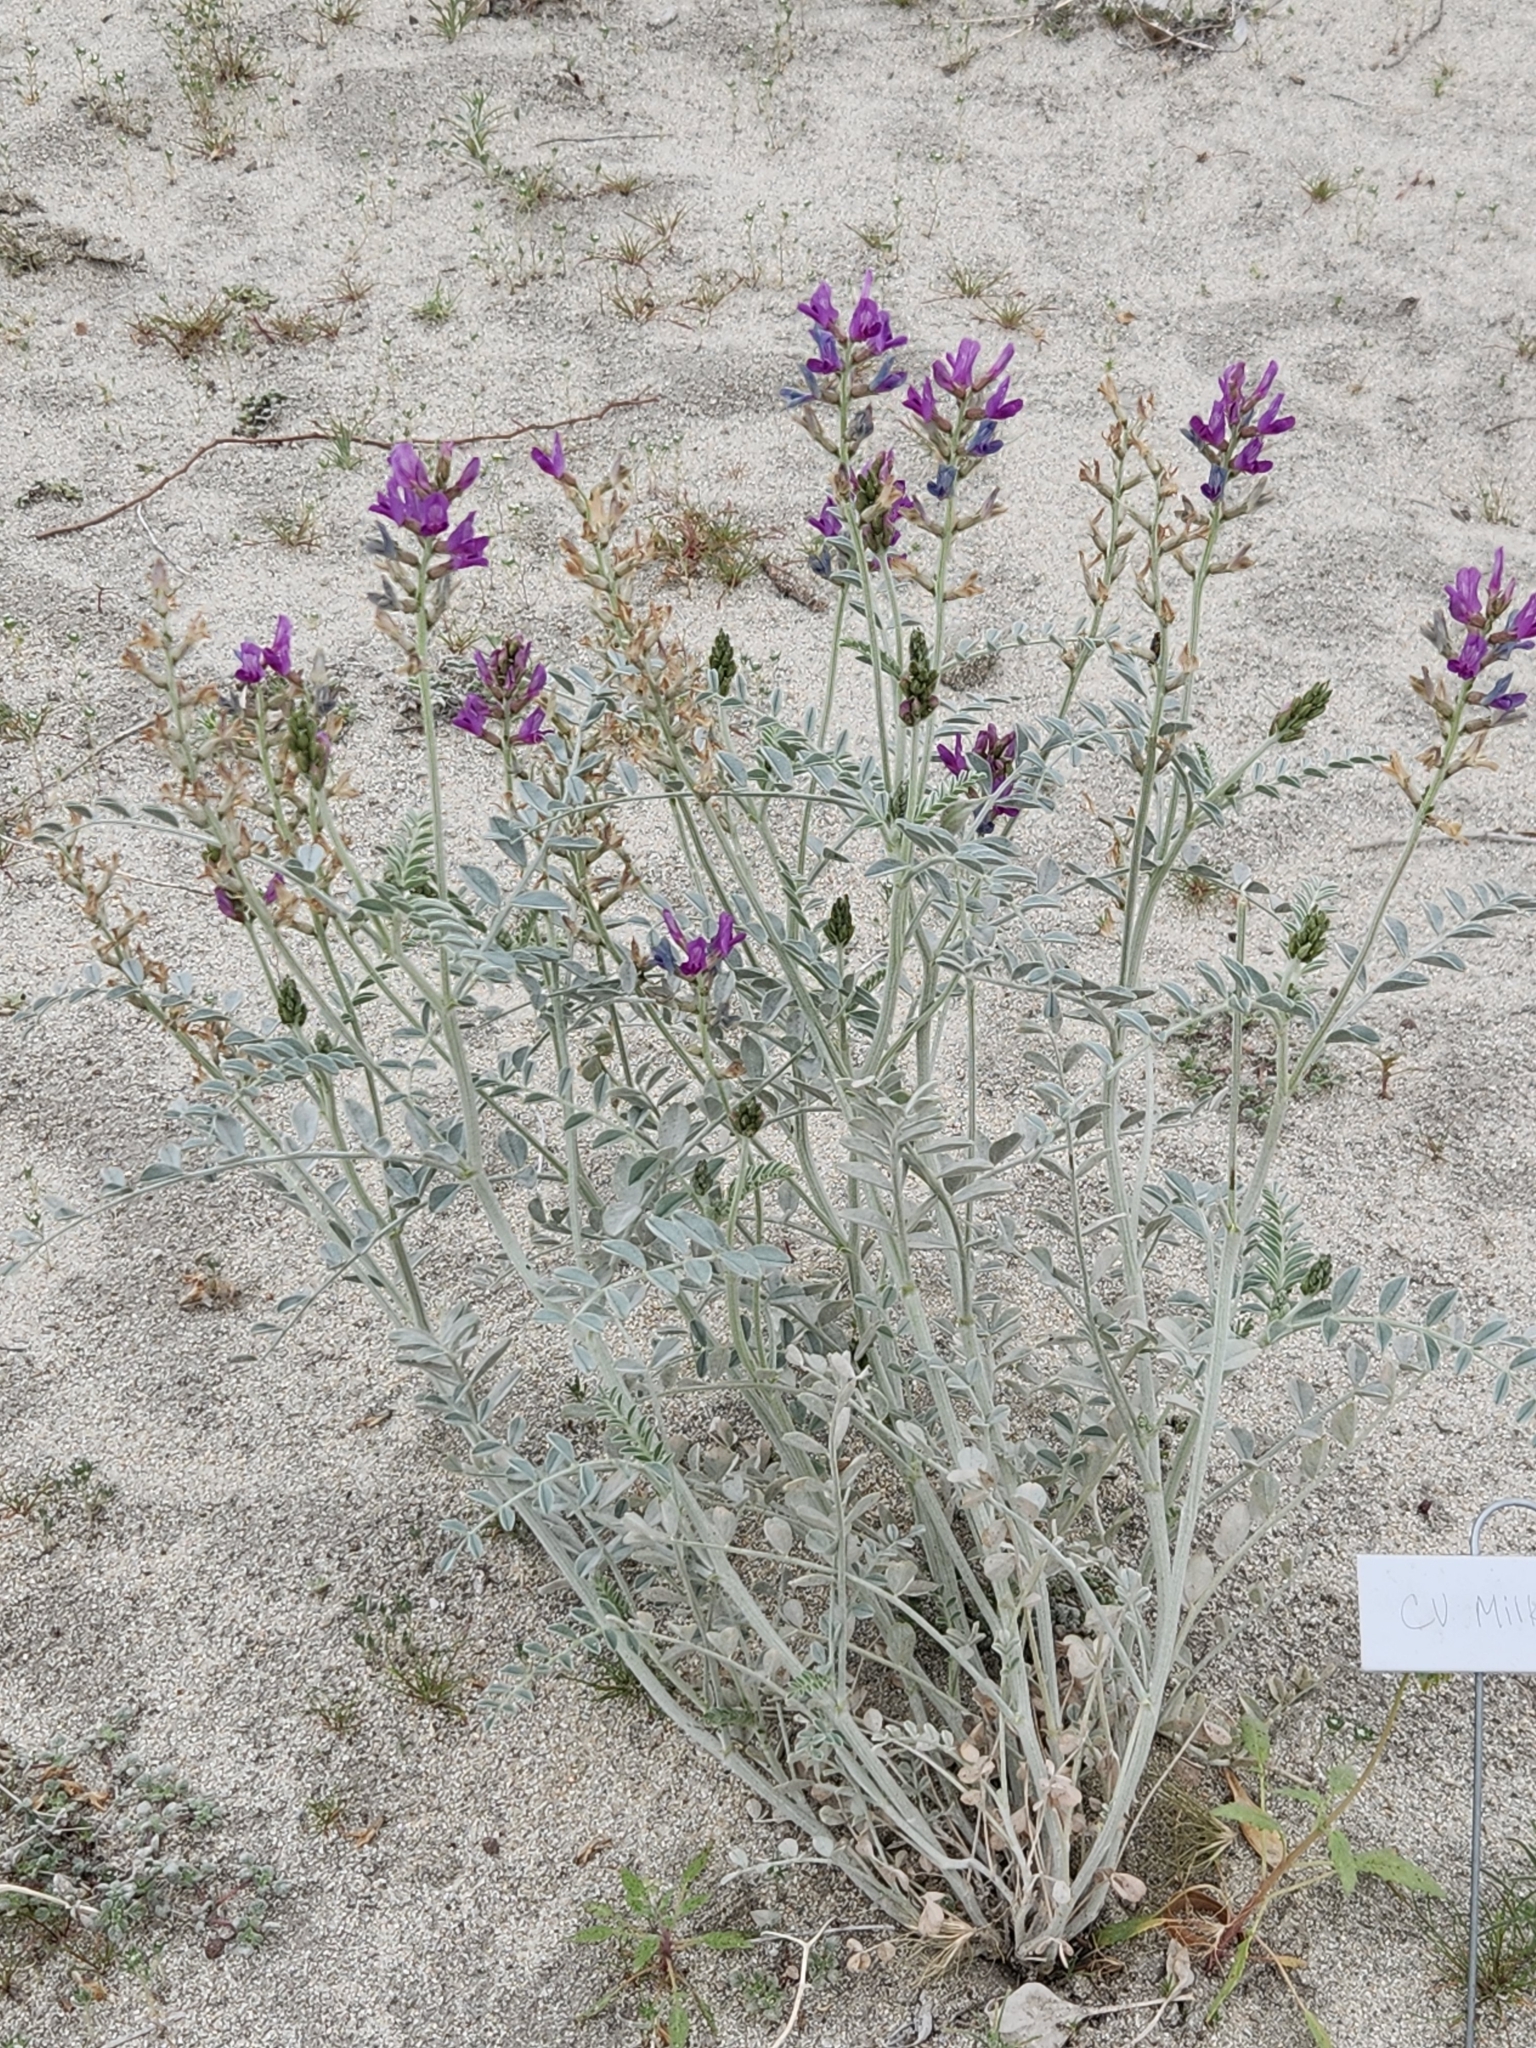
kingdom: Plantae
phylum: Tracheophyta
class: Magnoliopsida
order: Fabales
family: Fabaceae
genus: Astragalus
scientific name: Astragalus lentiginosus
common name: Freckled milkvetch
